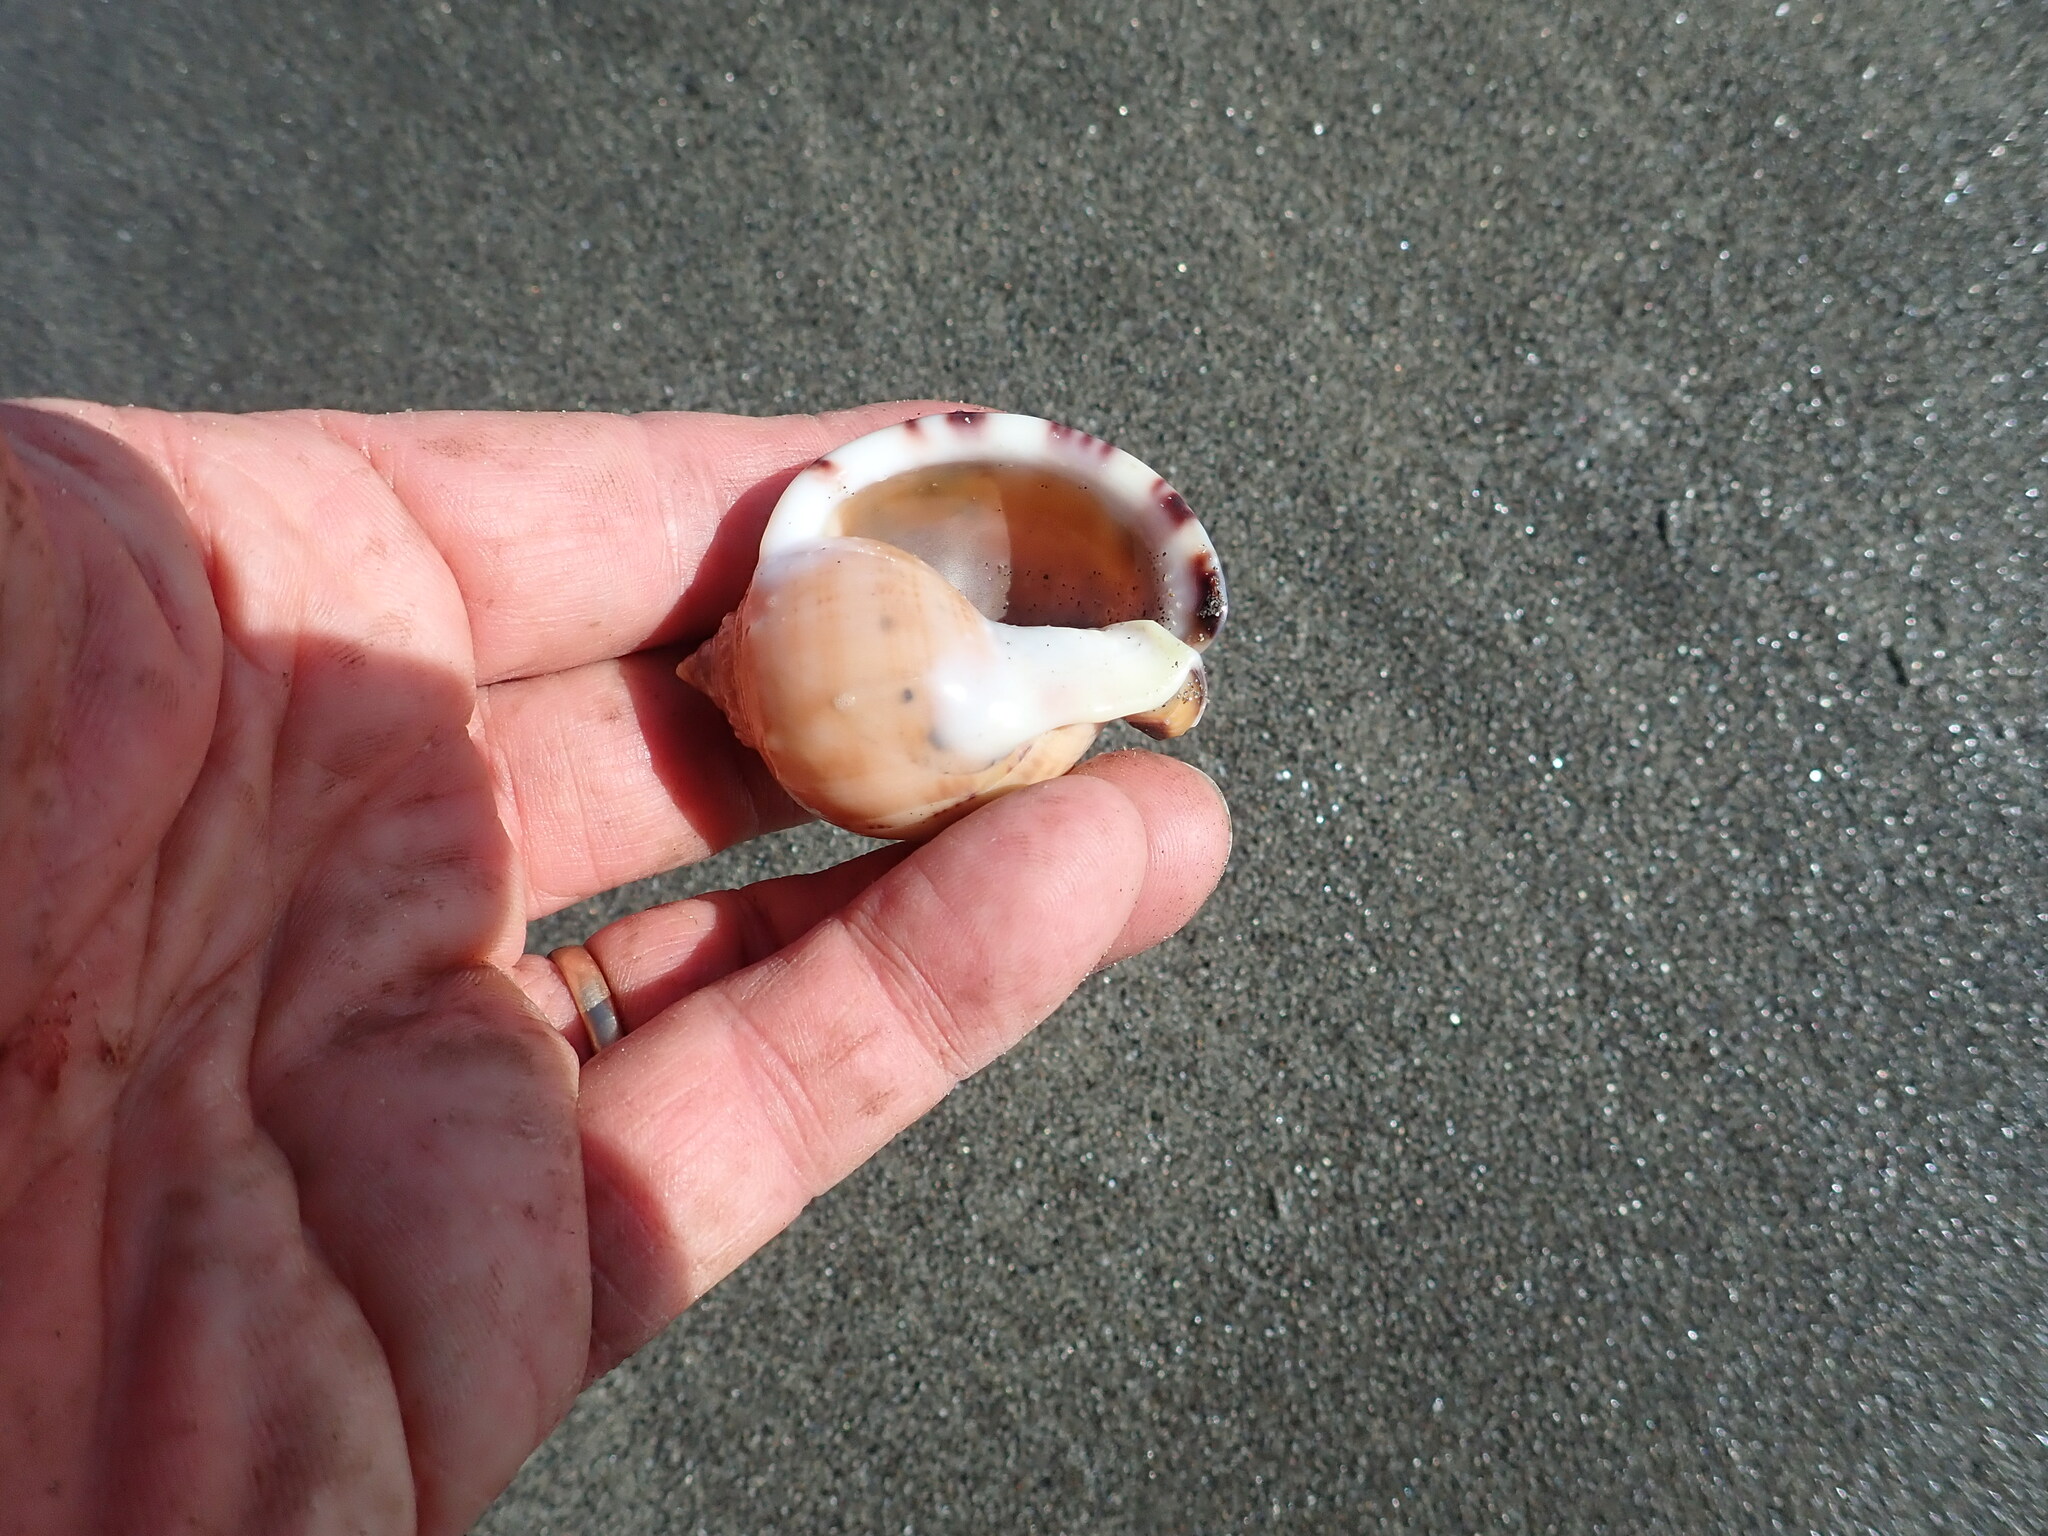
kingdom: Animalia
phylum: Mollusca
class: Gastropoda
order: Littorinimorpha
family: Cassidae
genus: Semicassis
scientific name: Semicassis pyrum
